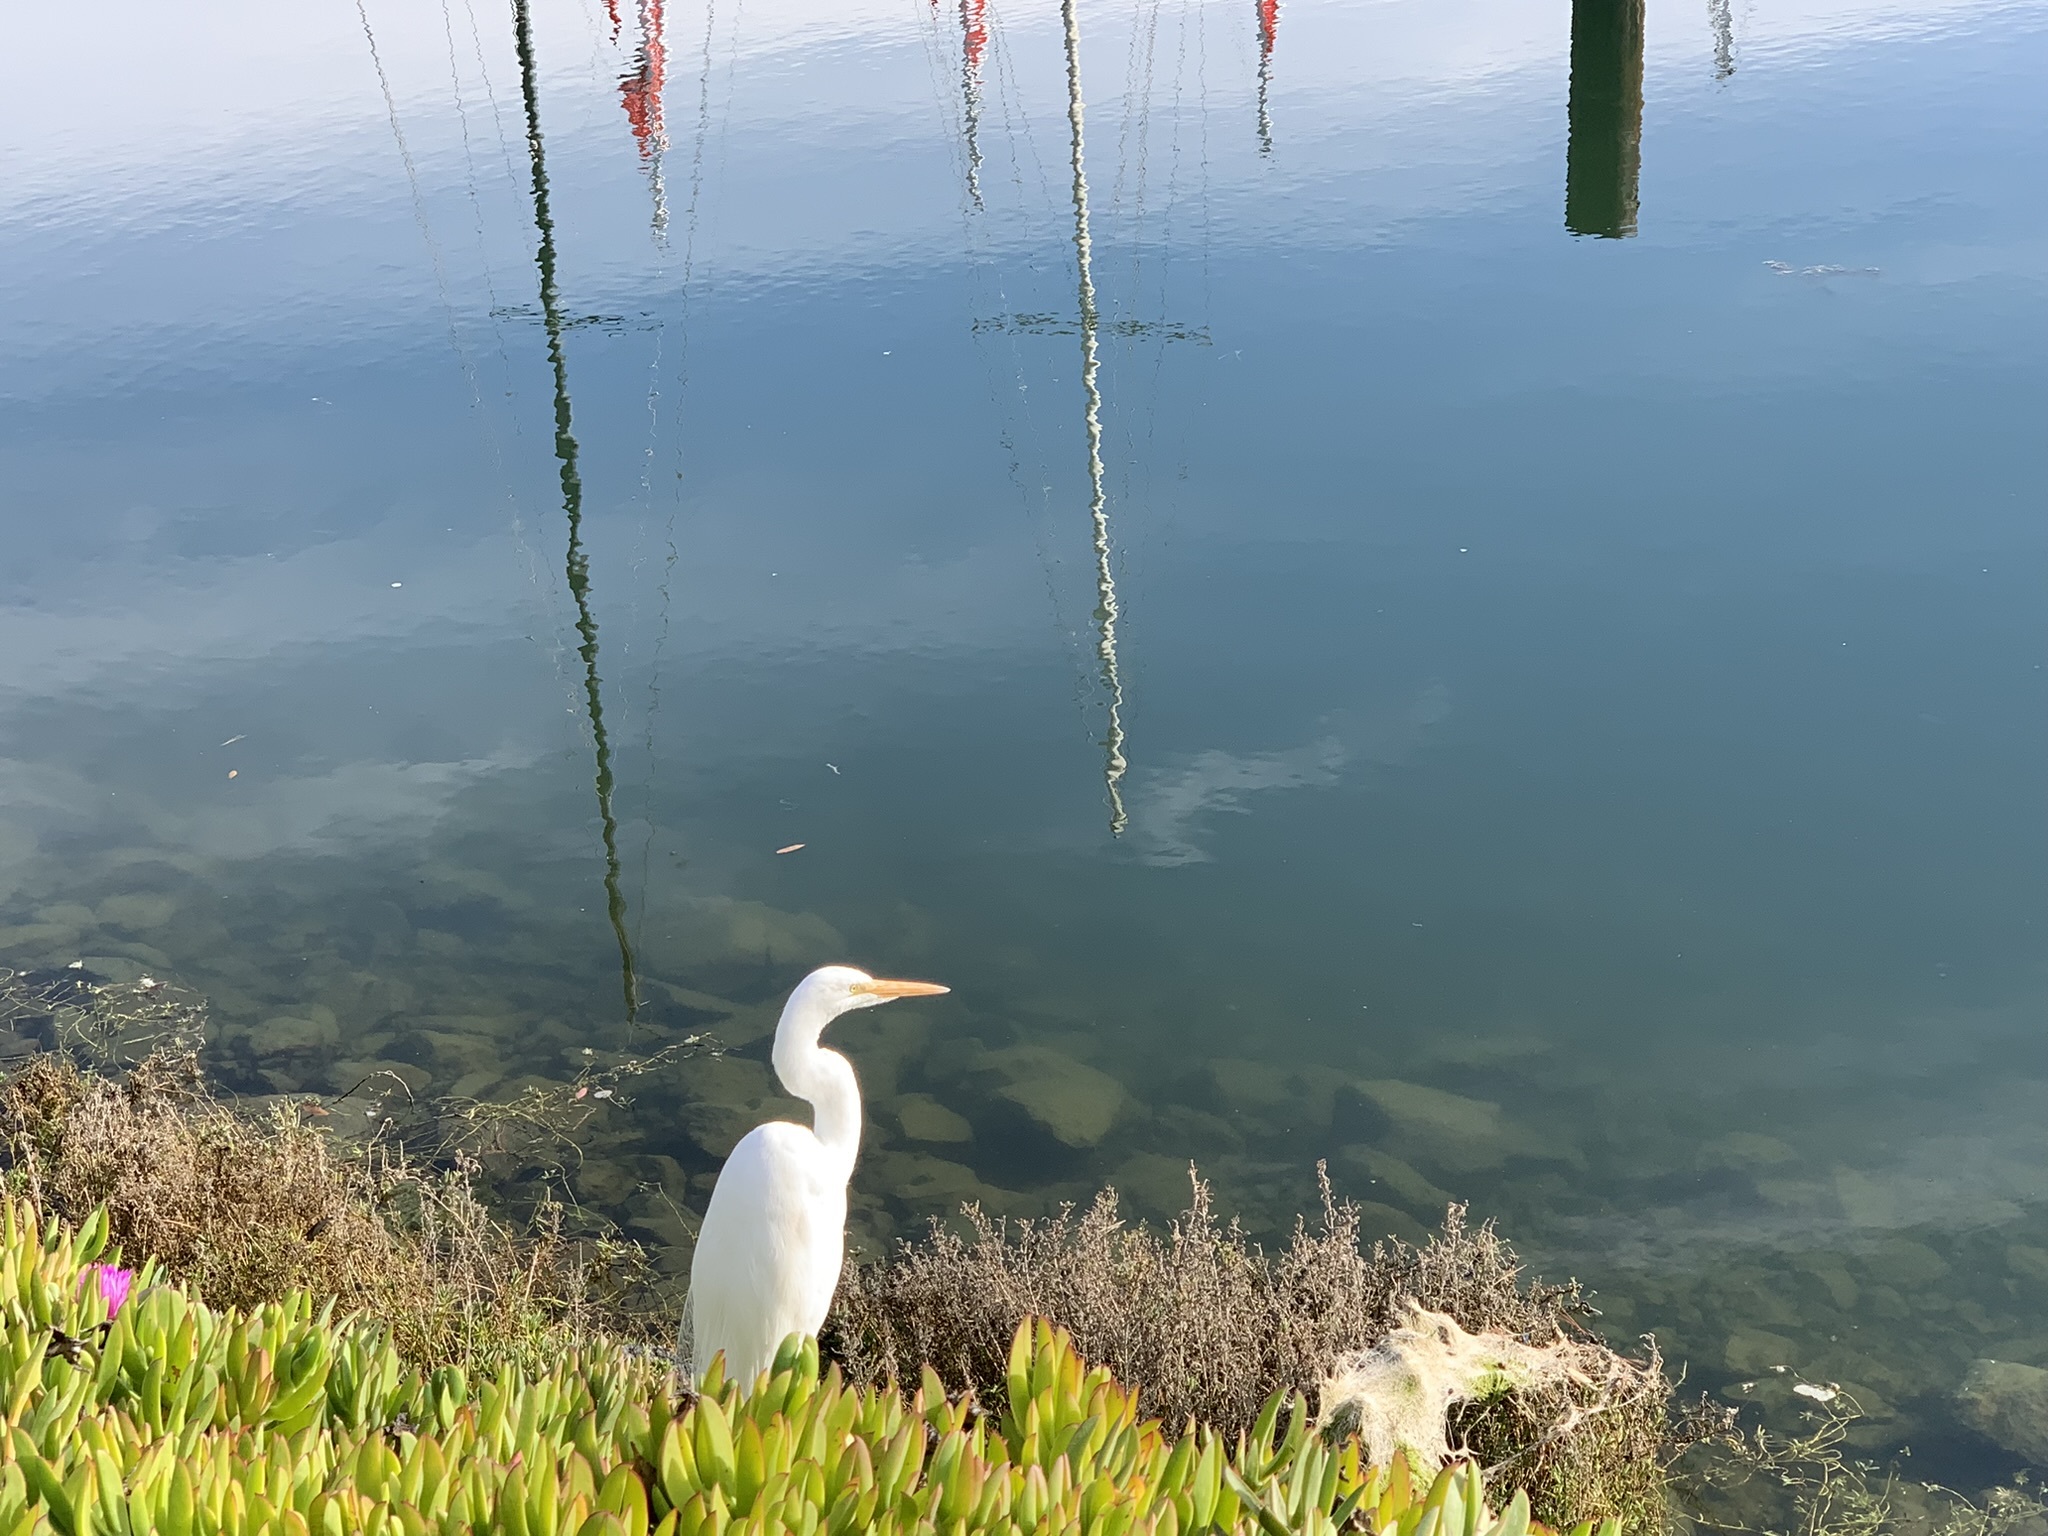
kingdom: Animalia
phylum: Chordata
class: Aves
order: Pelecaniformes
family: Ardeidae
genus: Ardea
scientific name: Ardea alba
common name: Great egret
